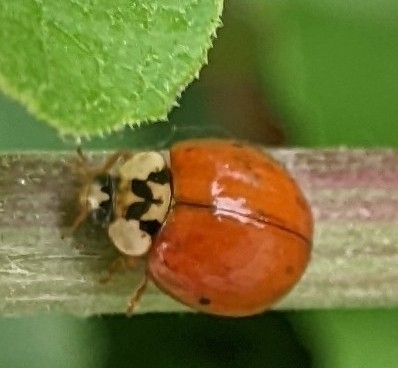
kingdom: Animalia
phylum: Arthropoda
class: Insecta
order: Coleoptera
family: Coccinellidae
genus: Harmonia
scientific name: Harmonia axyridis
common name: Harlequin ladybird
